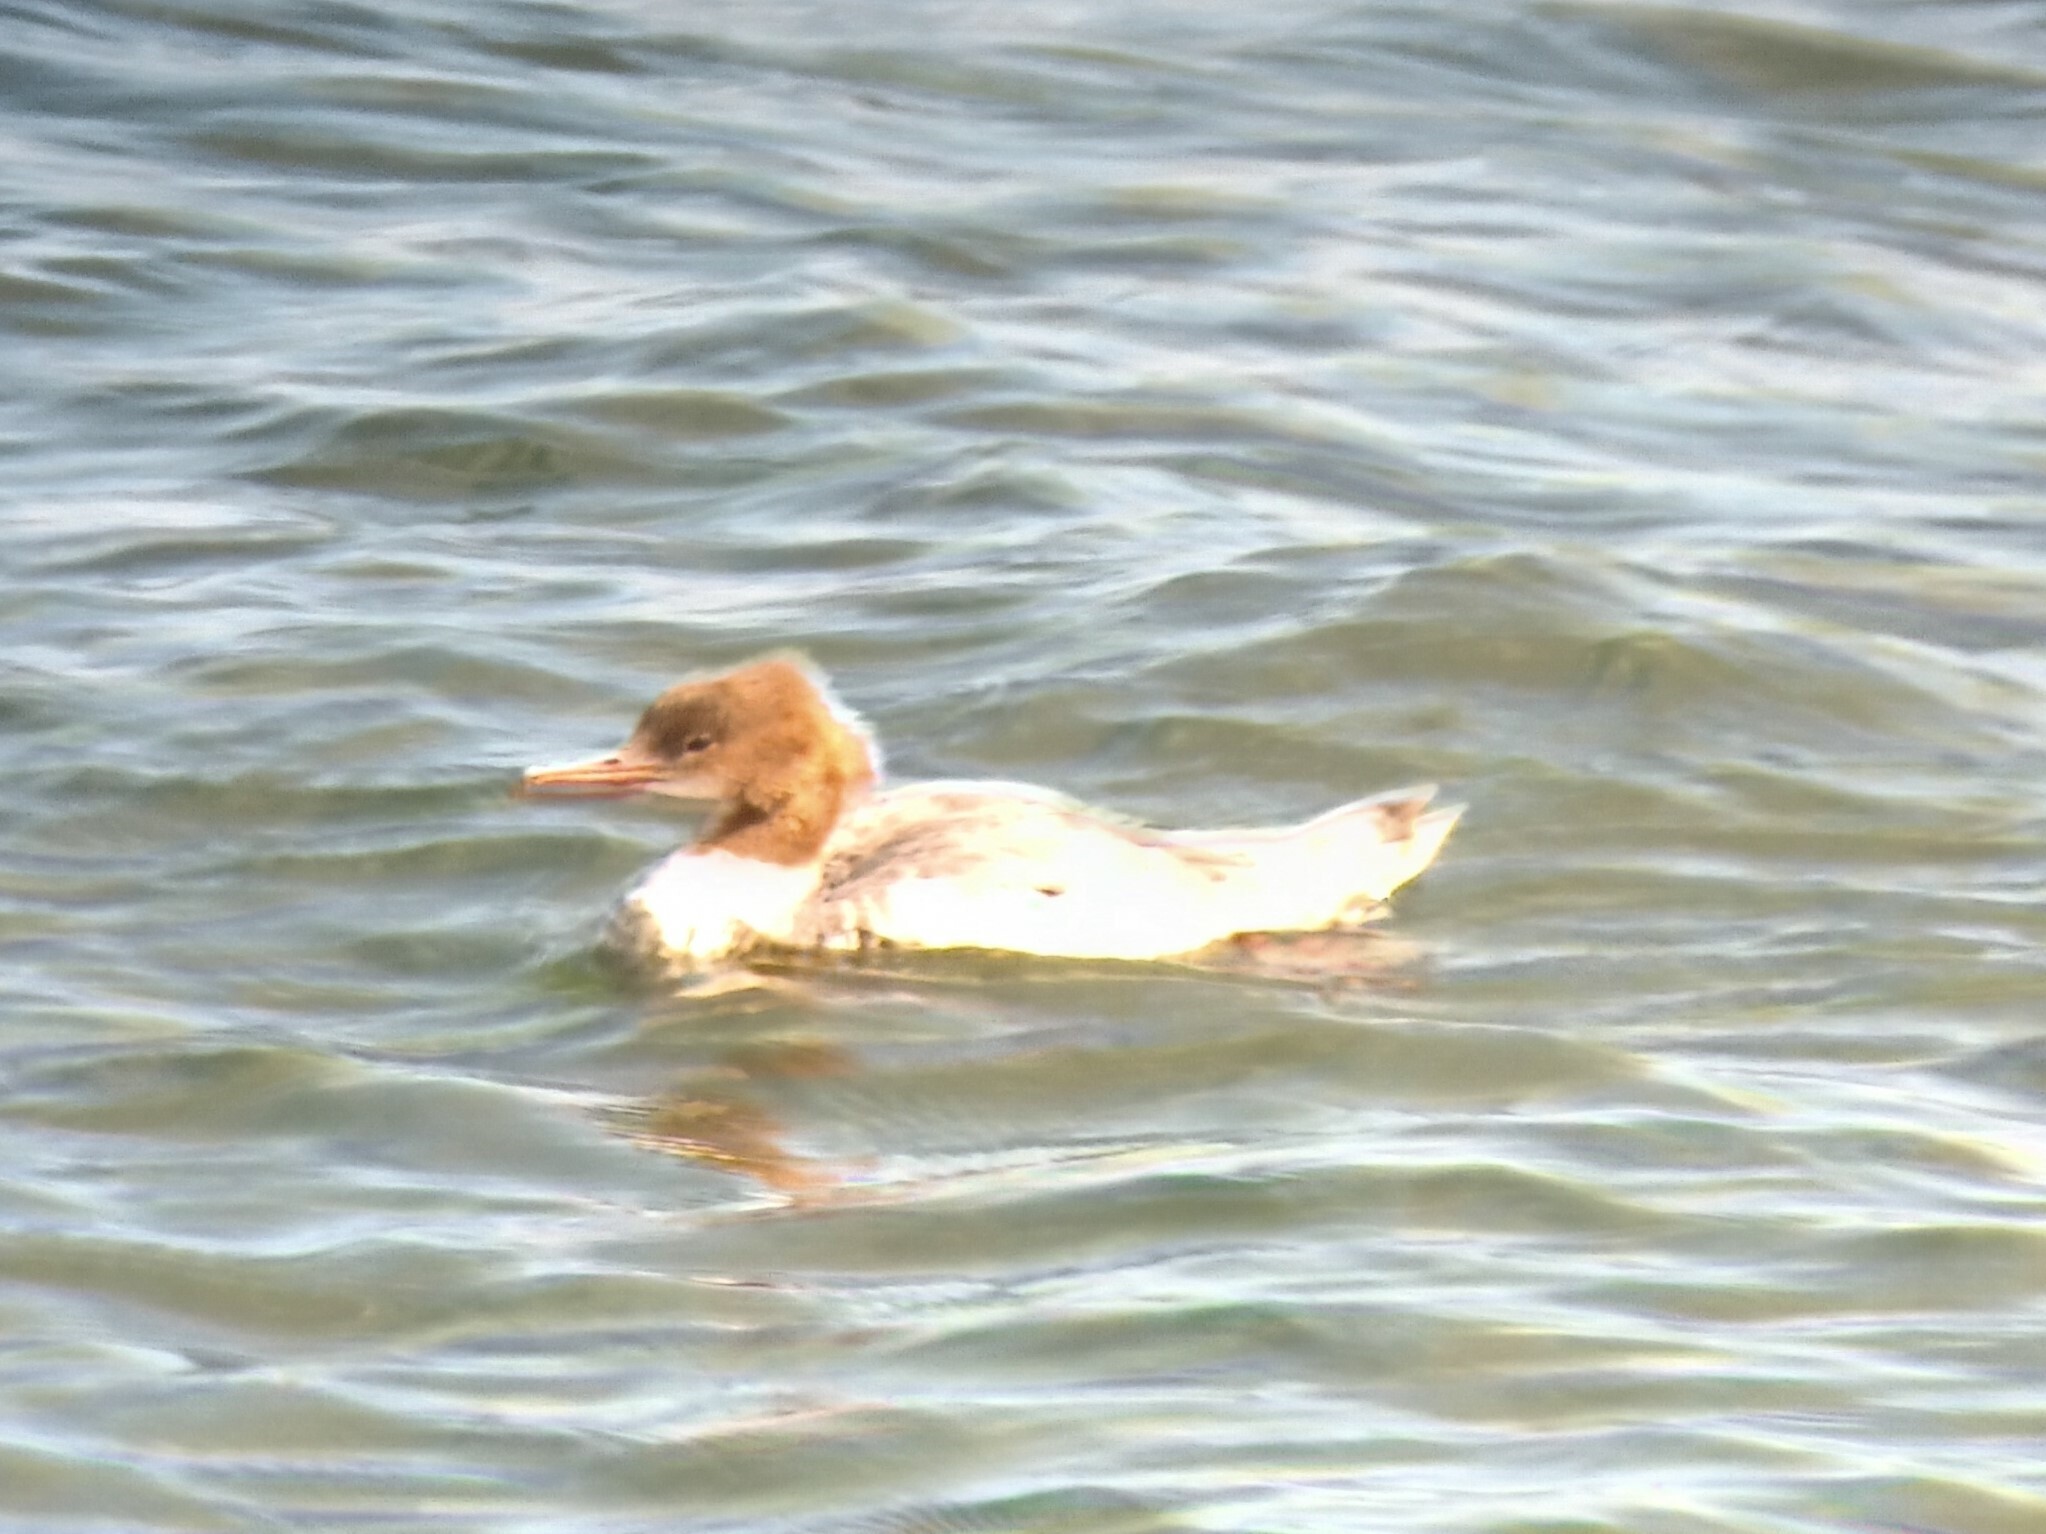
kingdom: Animalia
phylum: Chordata
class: Aves
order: Anseriformes
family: Anatidae
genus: Mergus
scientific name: Mergus merganser
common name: Common merganser
